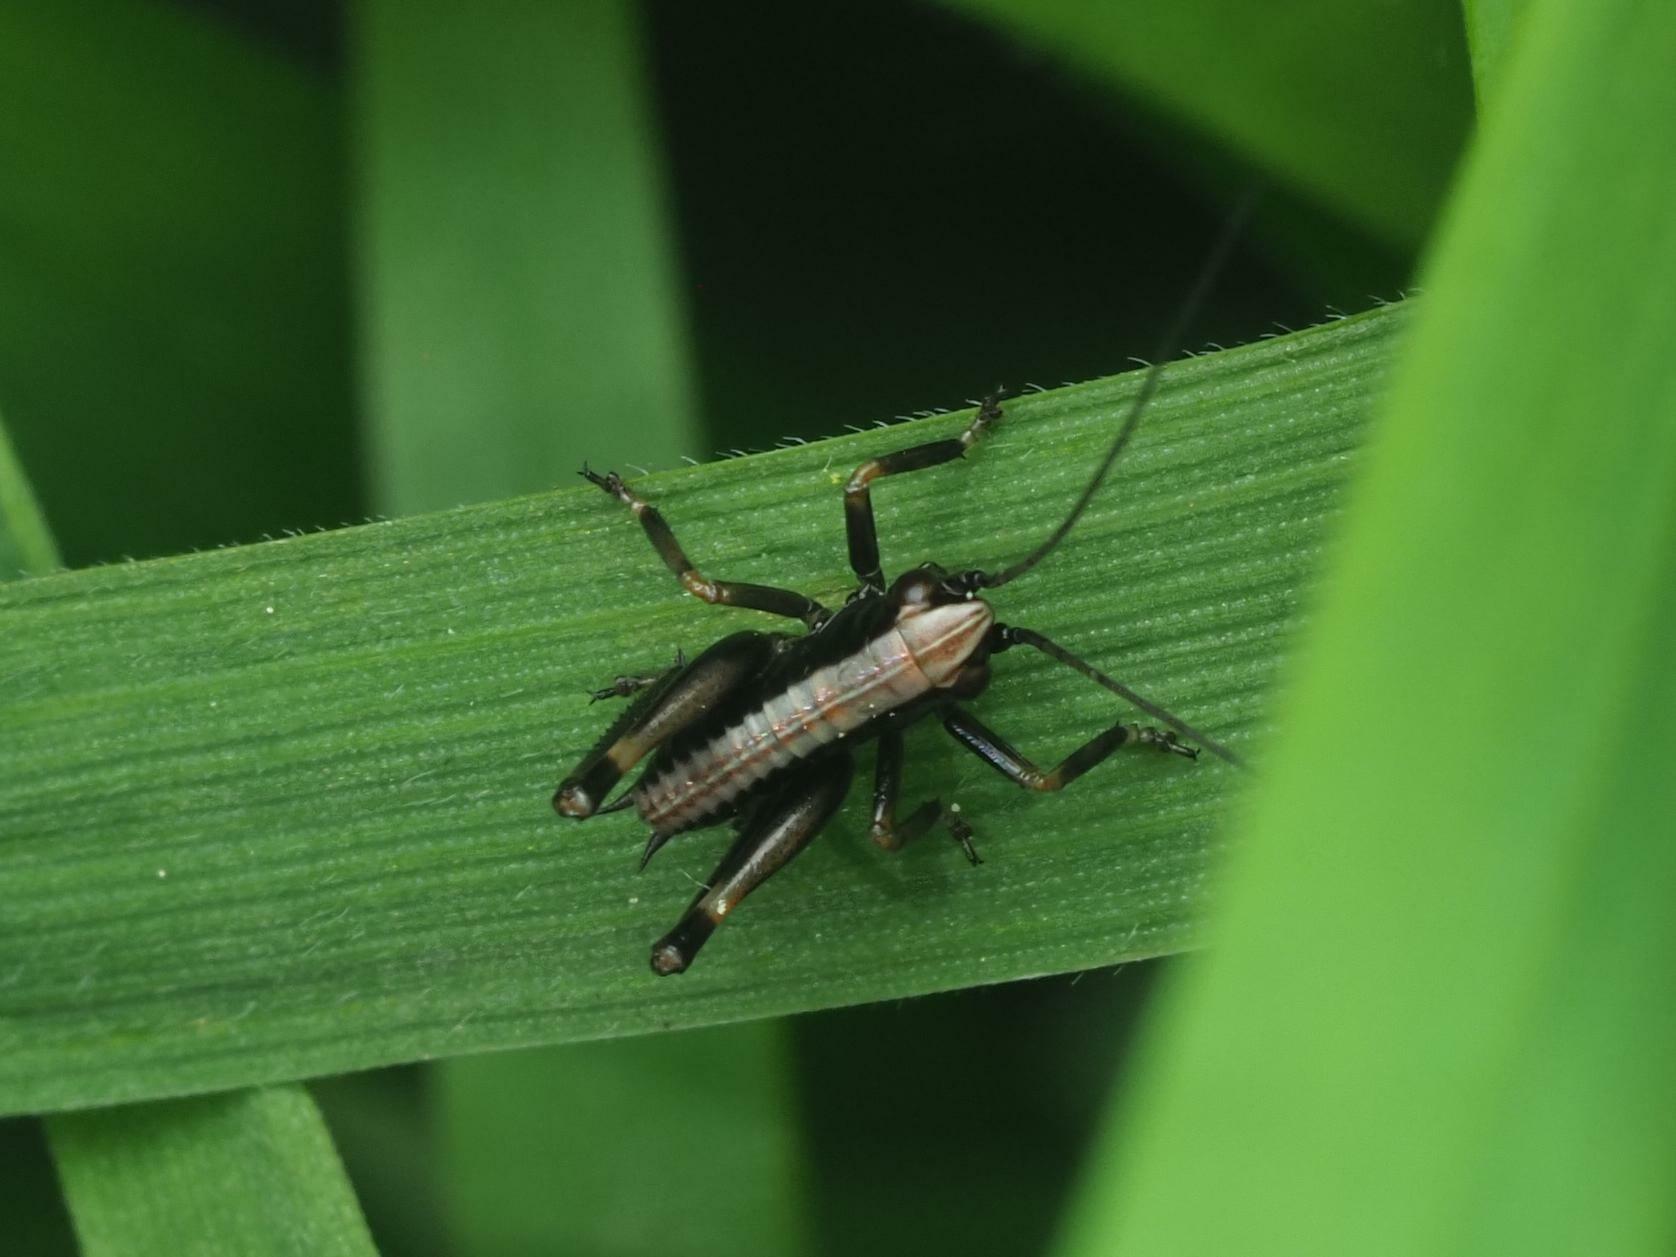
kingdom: Animalia
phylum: Arthropoda
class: Insecta
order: Orthoptera
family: Tettigoniidae
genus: Pholidoptera
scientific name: Pholidoptera griseoaptera
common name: Dark bush-cricket
